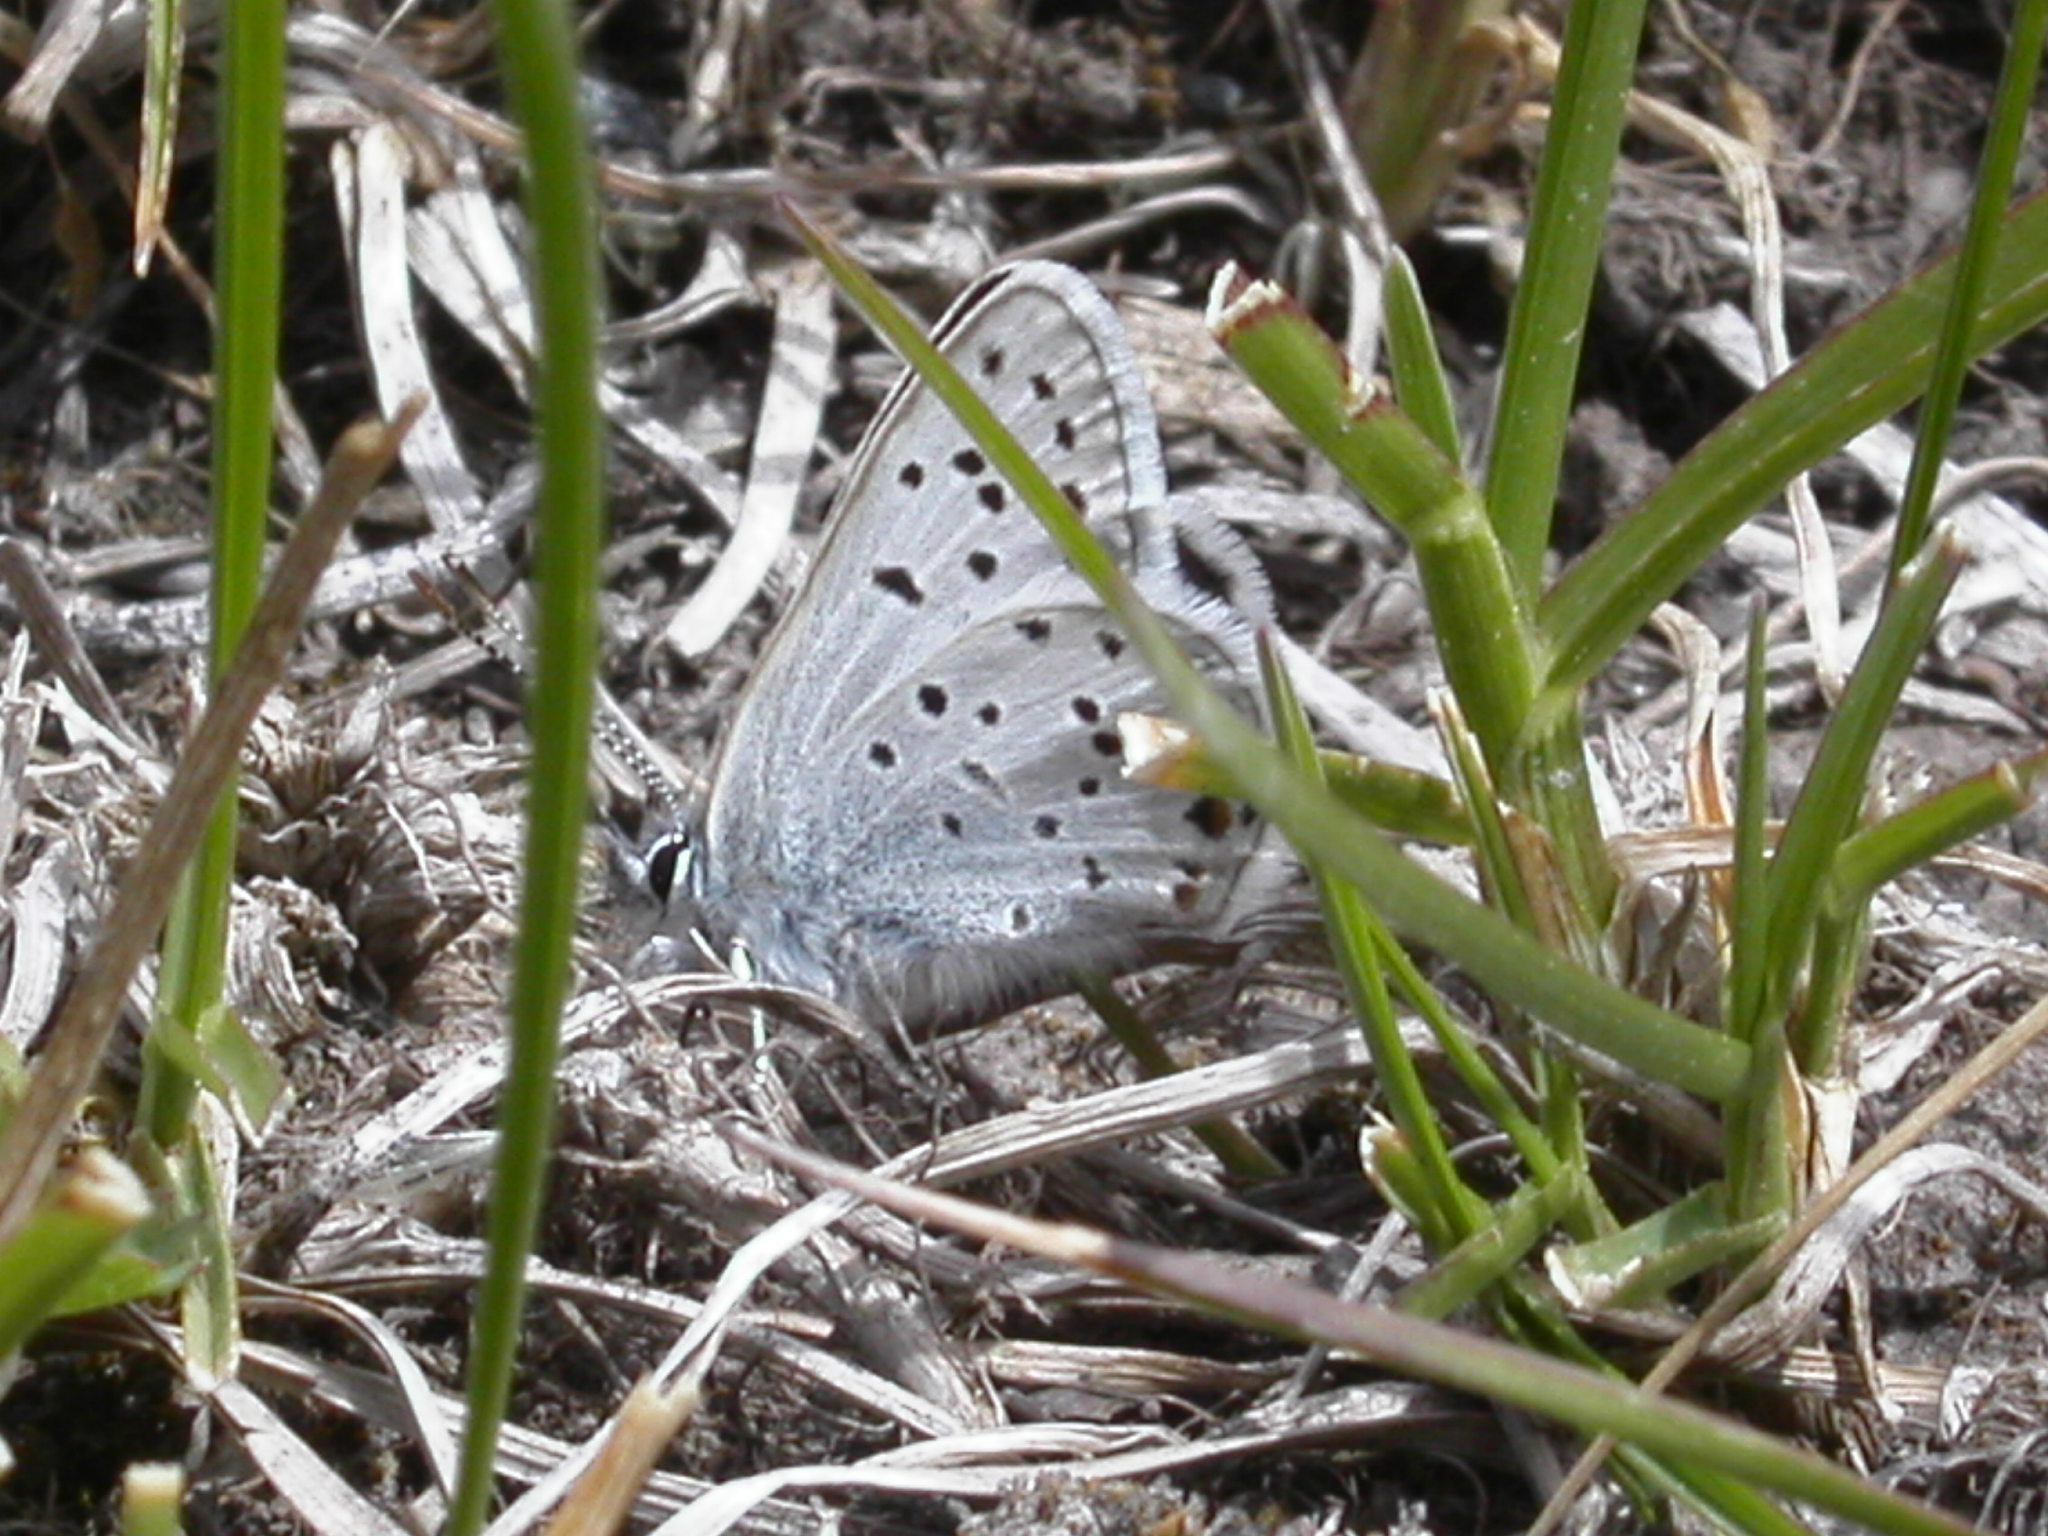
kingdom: Animalia
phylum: Arthropoda
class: Insecta
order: Lepidoptera
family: Lycaenidae
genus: Icaricia
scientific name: Icaricia saepiolus
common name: Greenish blue
